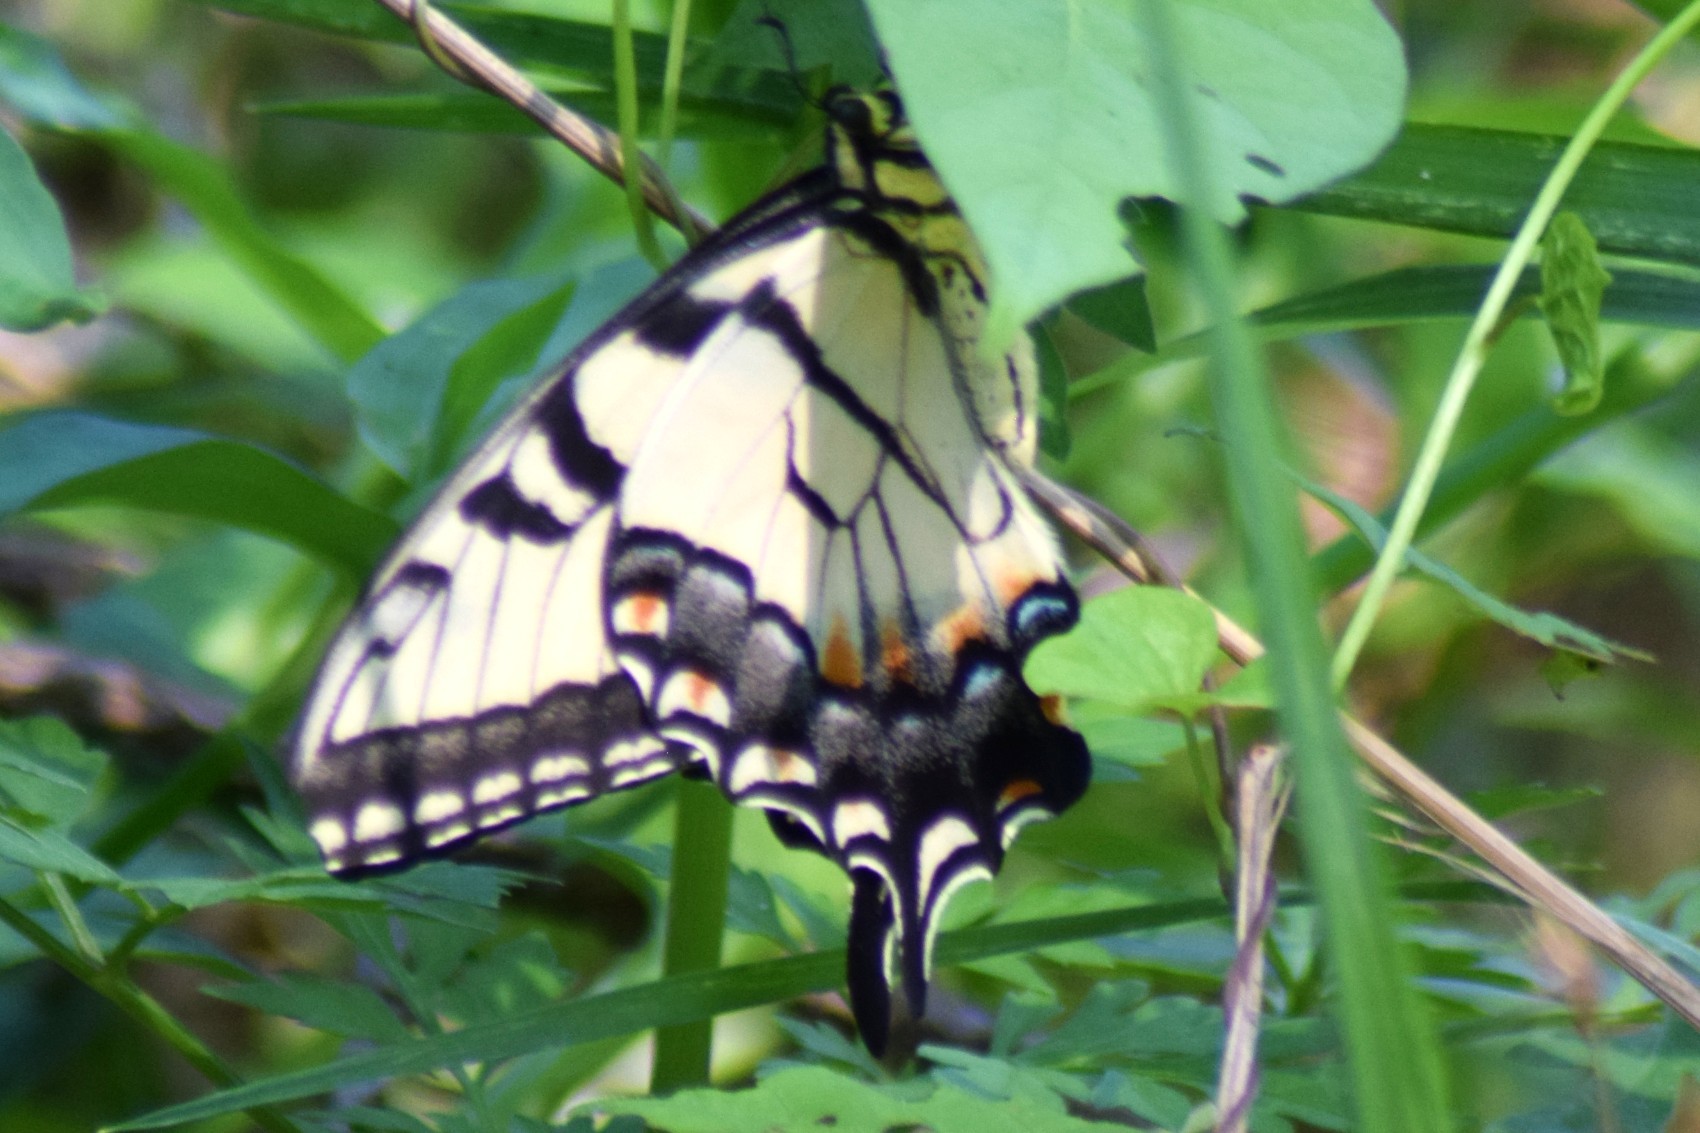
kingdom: Animalia
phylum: Arthropoda
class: Insecta
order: Lepidoptera
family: Papilionidae
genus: Papilio
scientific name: Papilio glaucus
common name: Tiger swallowtail
